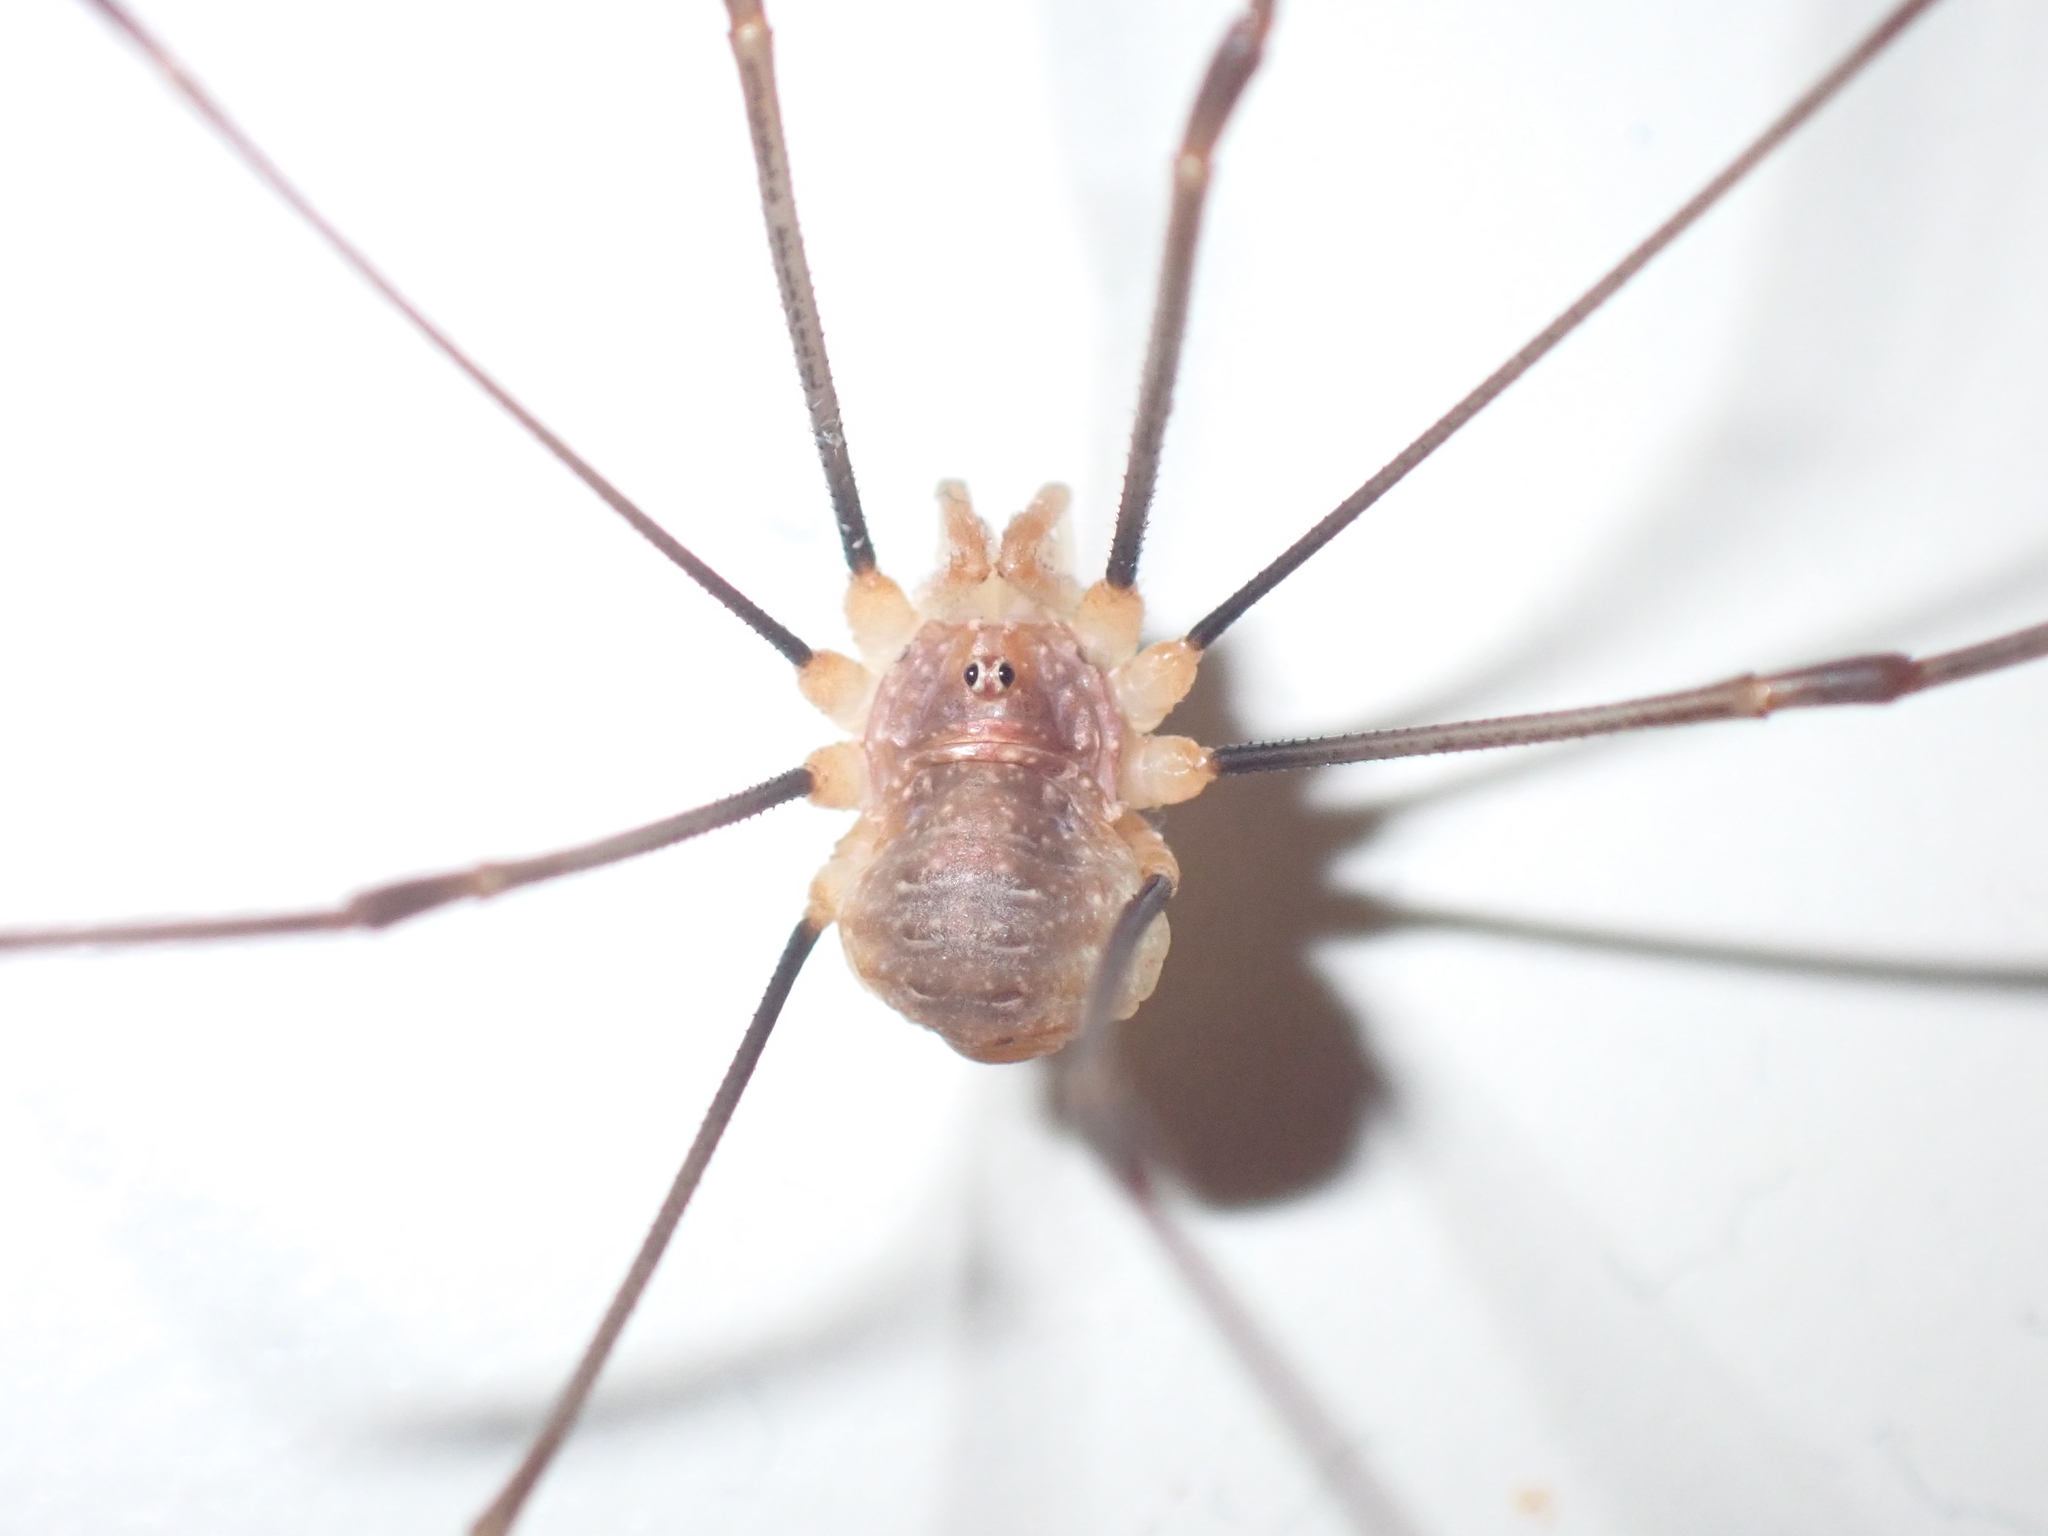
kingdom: Animalia
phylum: Arthropoda
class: Arachnida
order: Opiliones
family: Phalangiidae
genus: Opilio
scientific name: Opilio canestrinii
